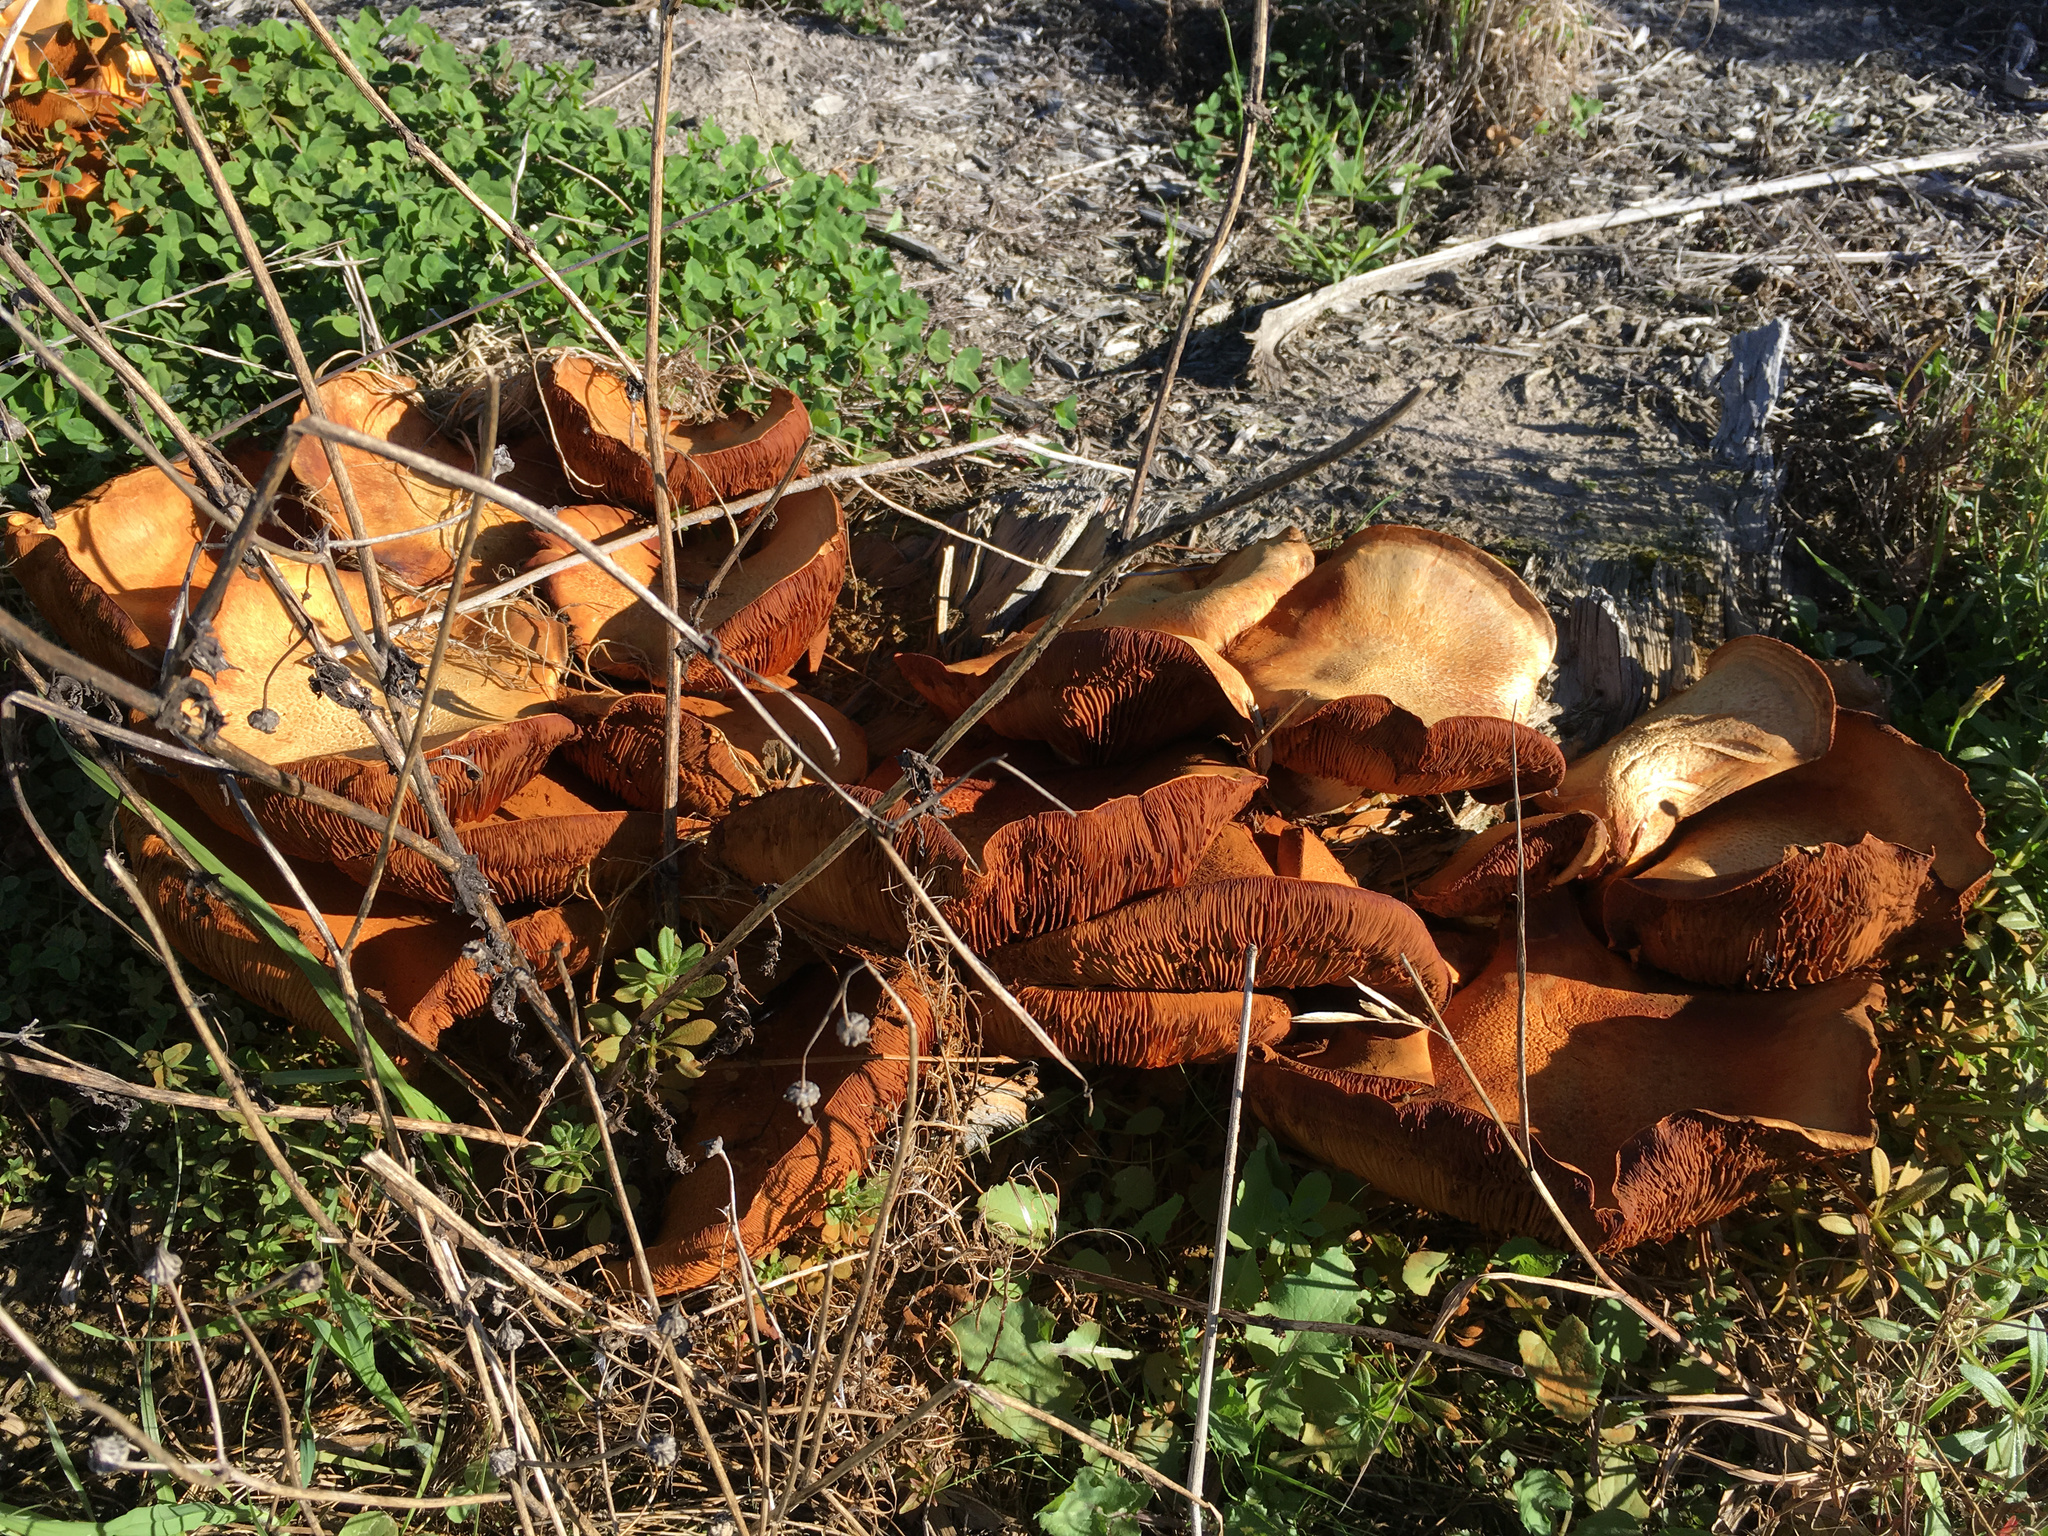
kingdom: Fungi
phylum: Basidiomycota
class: Agaricomycetes
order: Agaricales
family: Hymenogastraceae
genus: Gymnopilus
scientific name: Gymnopilus junonius
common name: Spectacular rustgill
